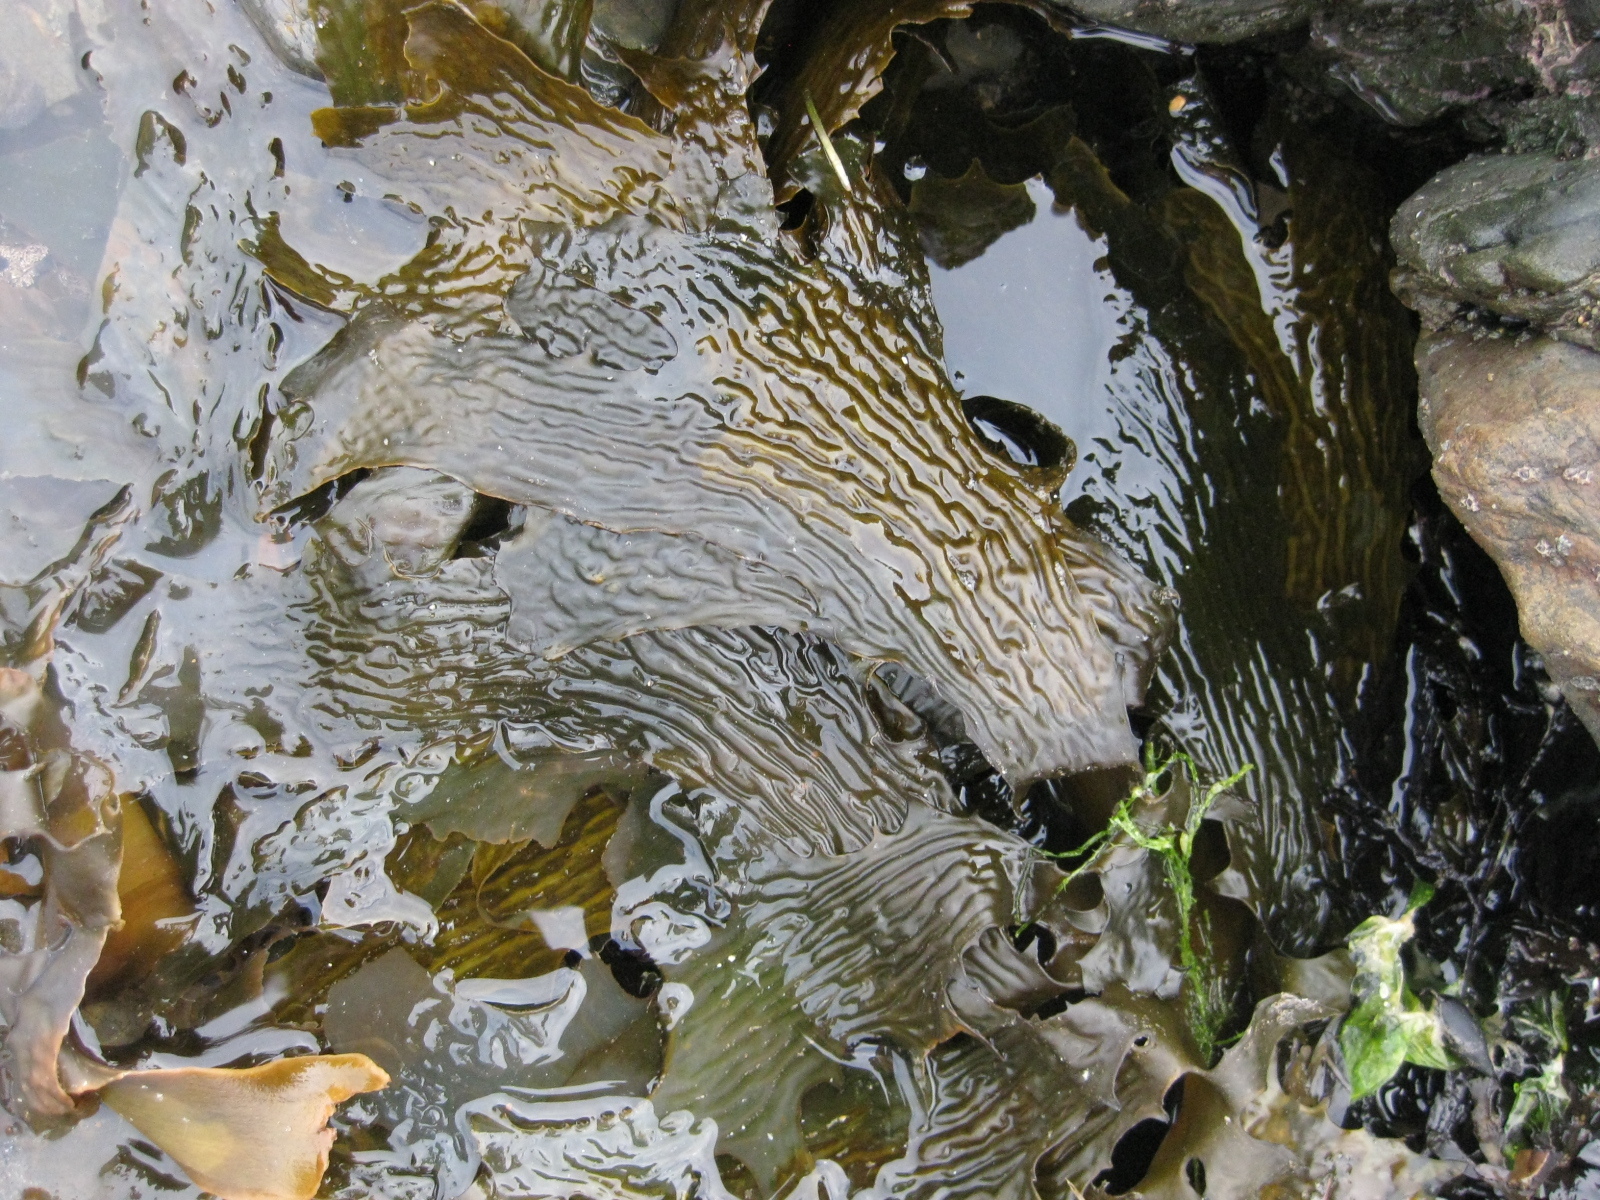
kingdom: Chromista
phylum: Ochrophyta
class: Phaeophyceae
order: Laminariales
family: Laminariaceae
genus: Macrocystis
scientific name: Macrocystis pyrifera
